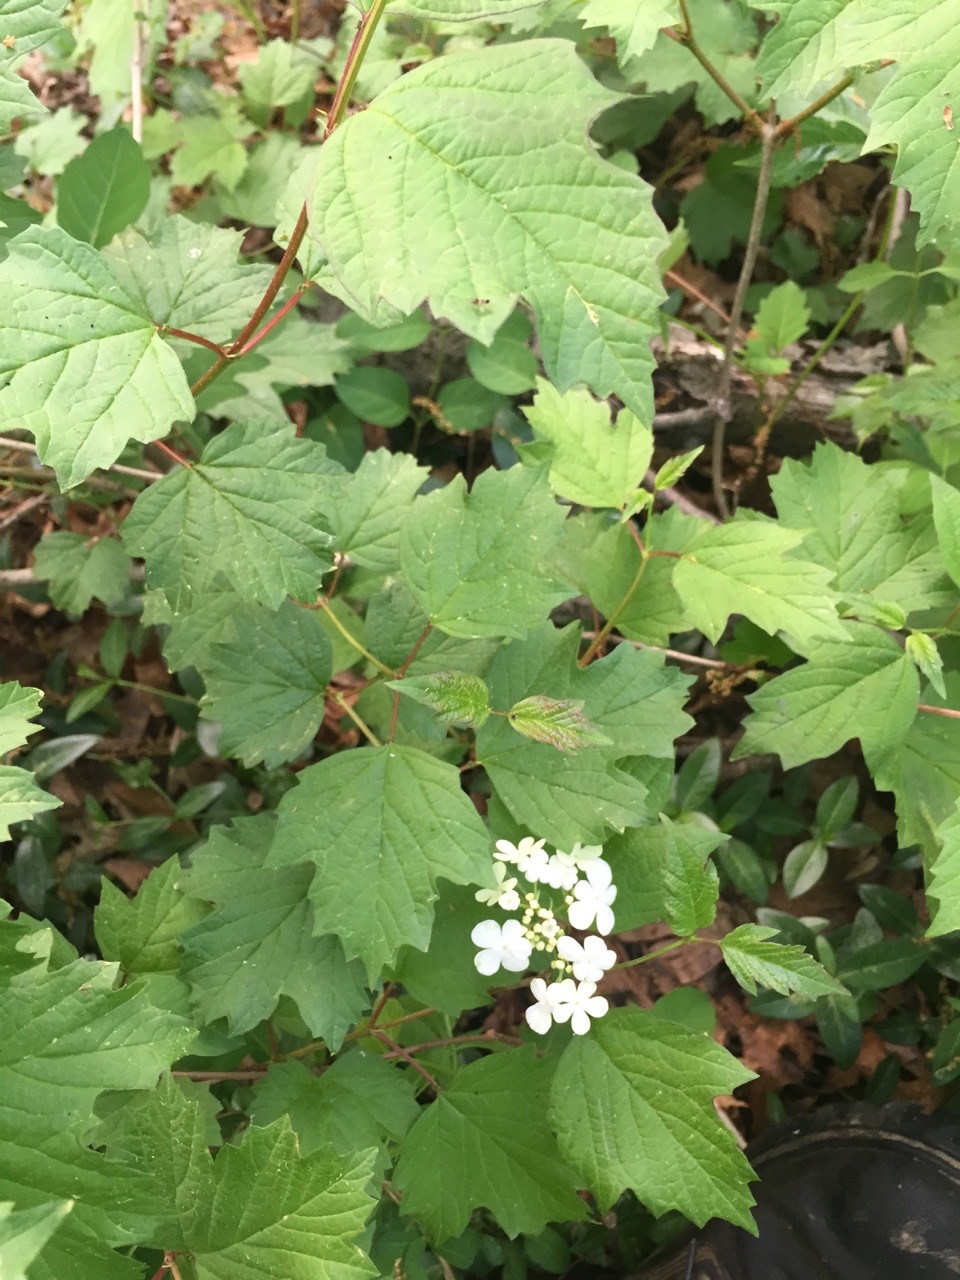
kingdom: Plantae
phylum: Tracheophyta
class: Magnoliopsida
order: Dipsacales
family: Viburnaceae
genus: Viburnum
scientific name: Viburnum opulus
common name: Guelder-rose
